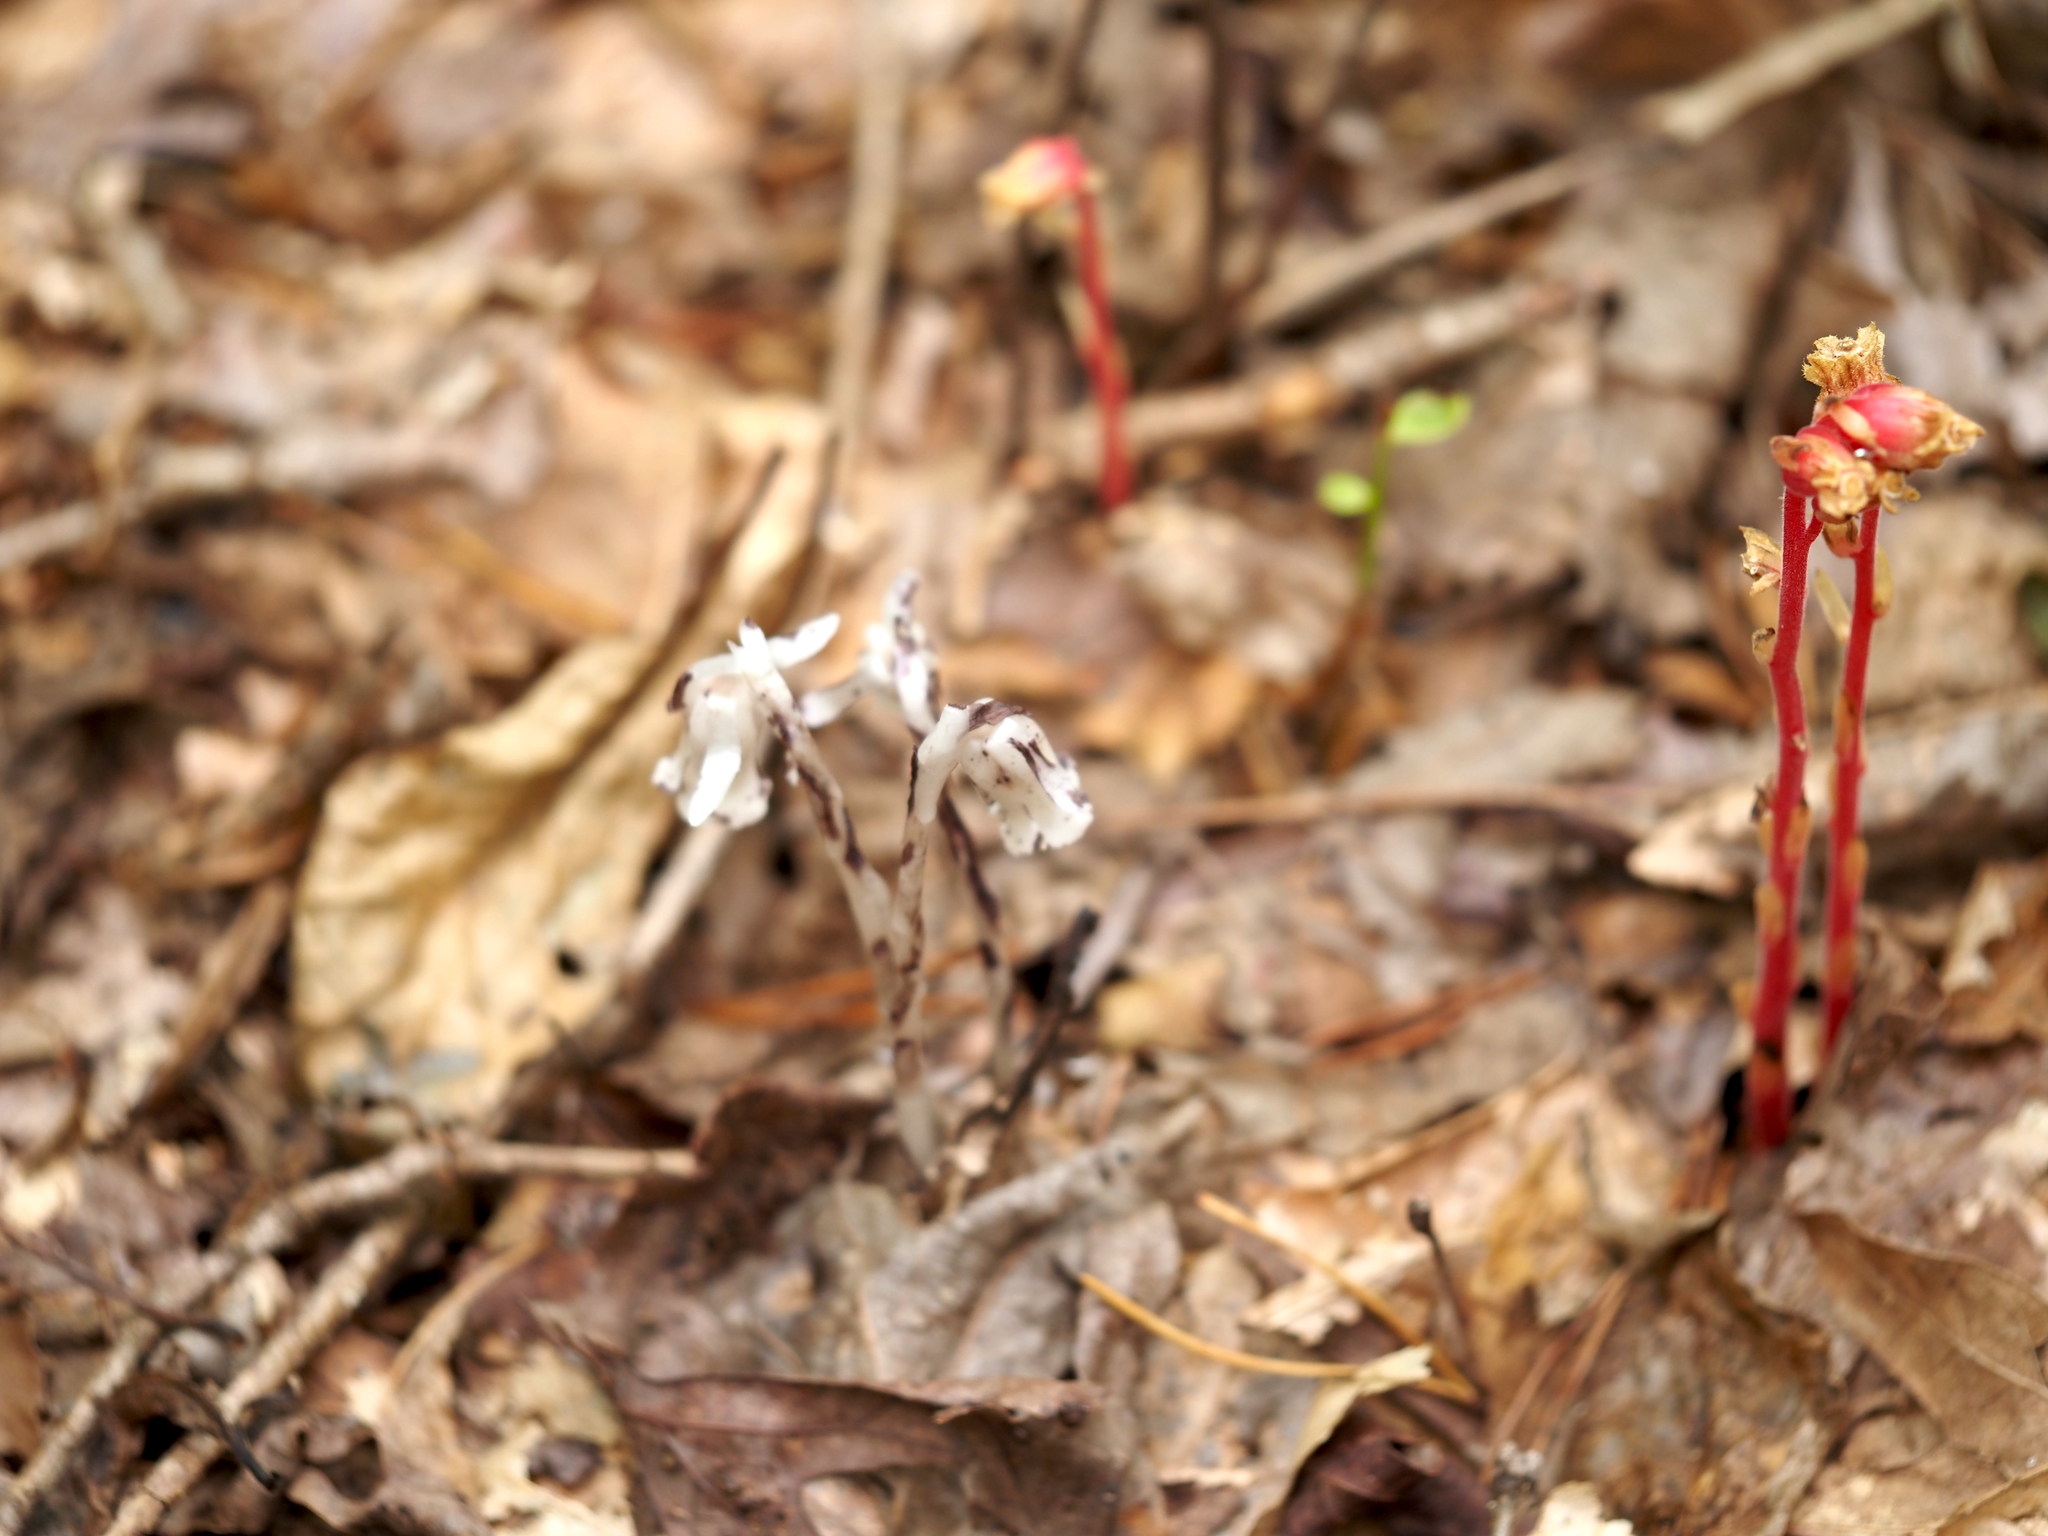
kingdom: Plantae
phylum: Tracheophyta
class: Magnoliopsida
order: Ericales
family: Ericaceae
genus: Monotropa
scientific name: Monotropa uniflora
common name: Convulsion root
